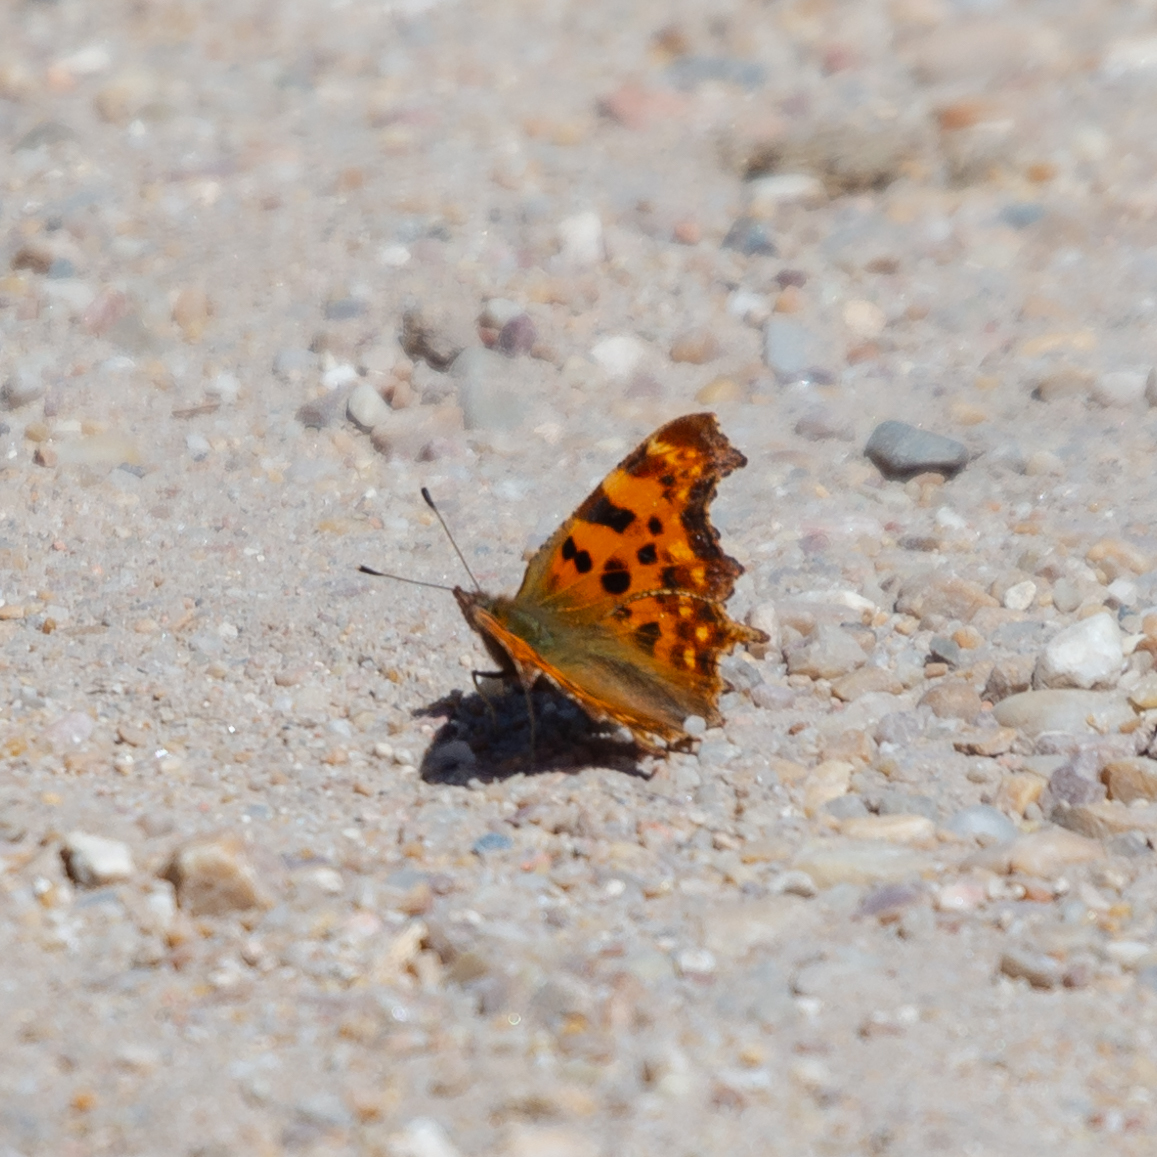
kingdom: Animalia
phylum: Arthropoda
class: Insecta
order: Lepidoptera
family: Nymphalidae
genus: Polygonia
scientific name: Polygonia c-album
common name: Comma
